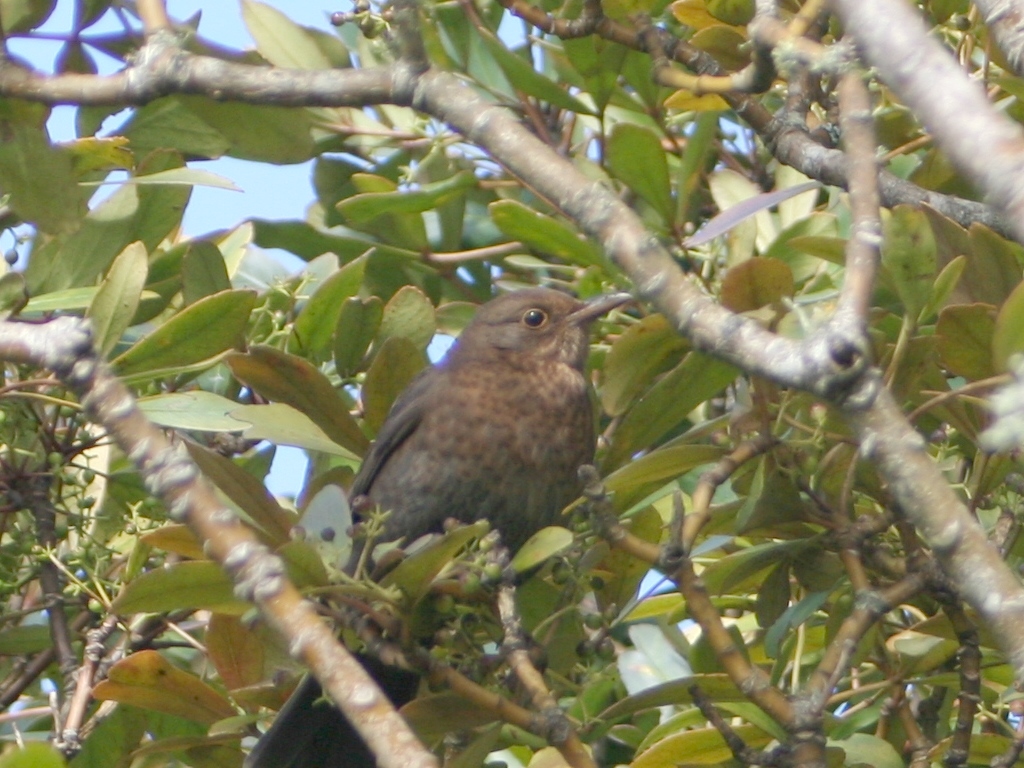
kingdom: Animalia
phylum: Chordata
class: Aves
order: Passeriformes
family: Turdidae
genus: Turdus
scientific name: Turdus merula
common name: Common blackbird
